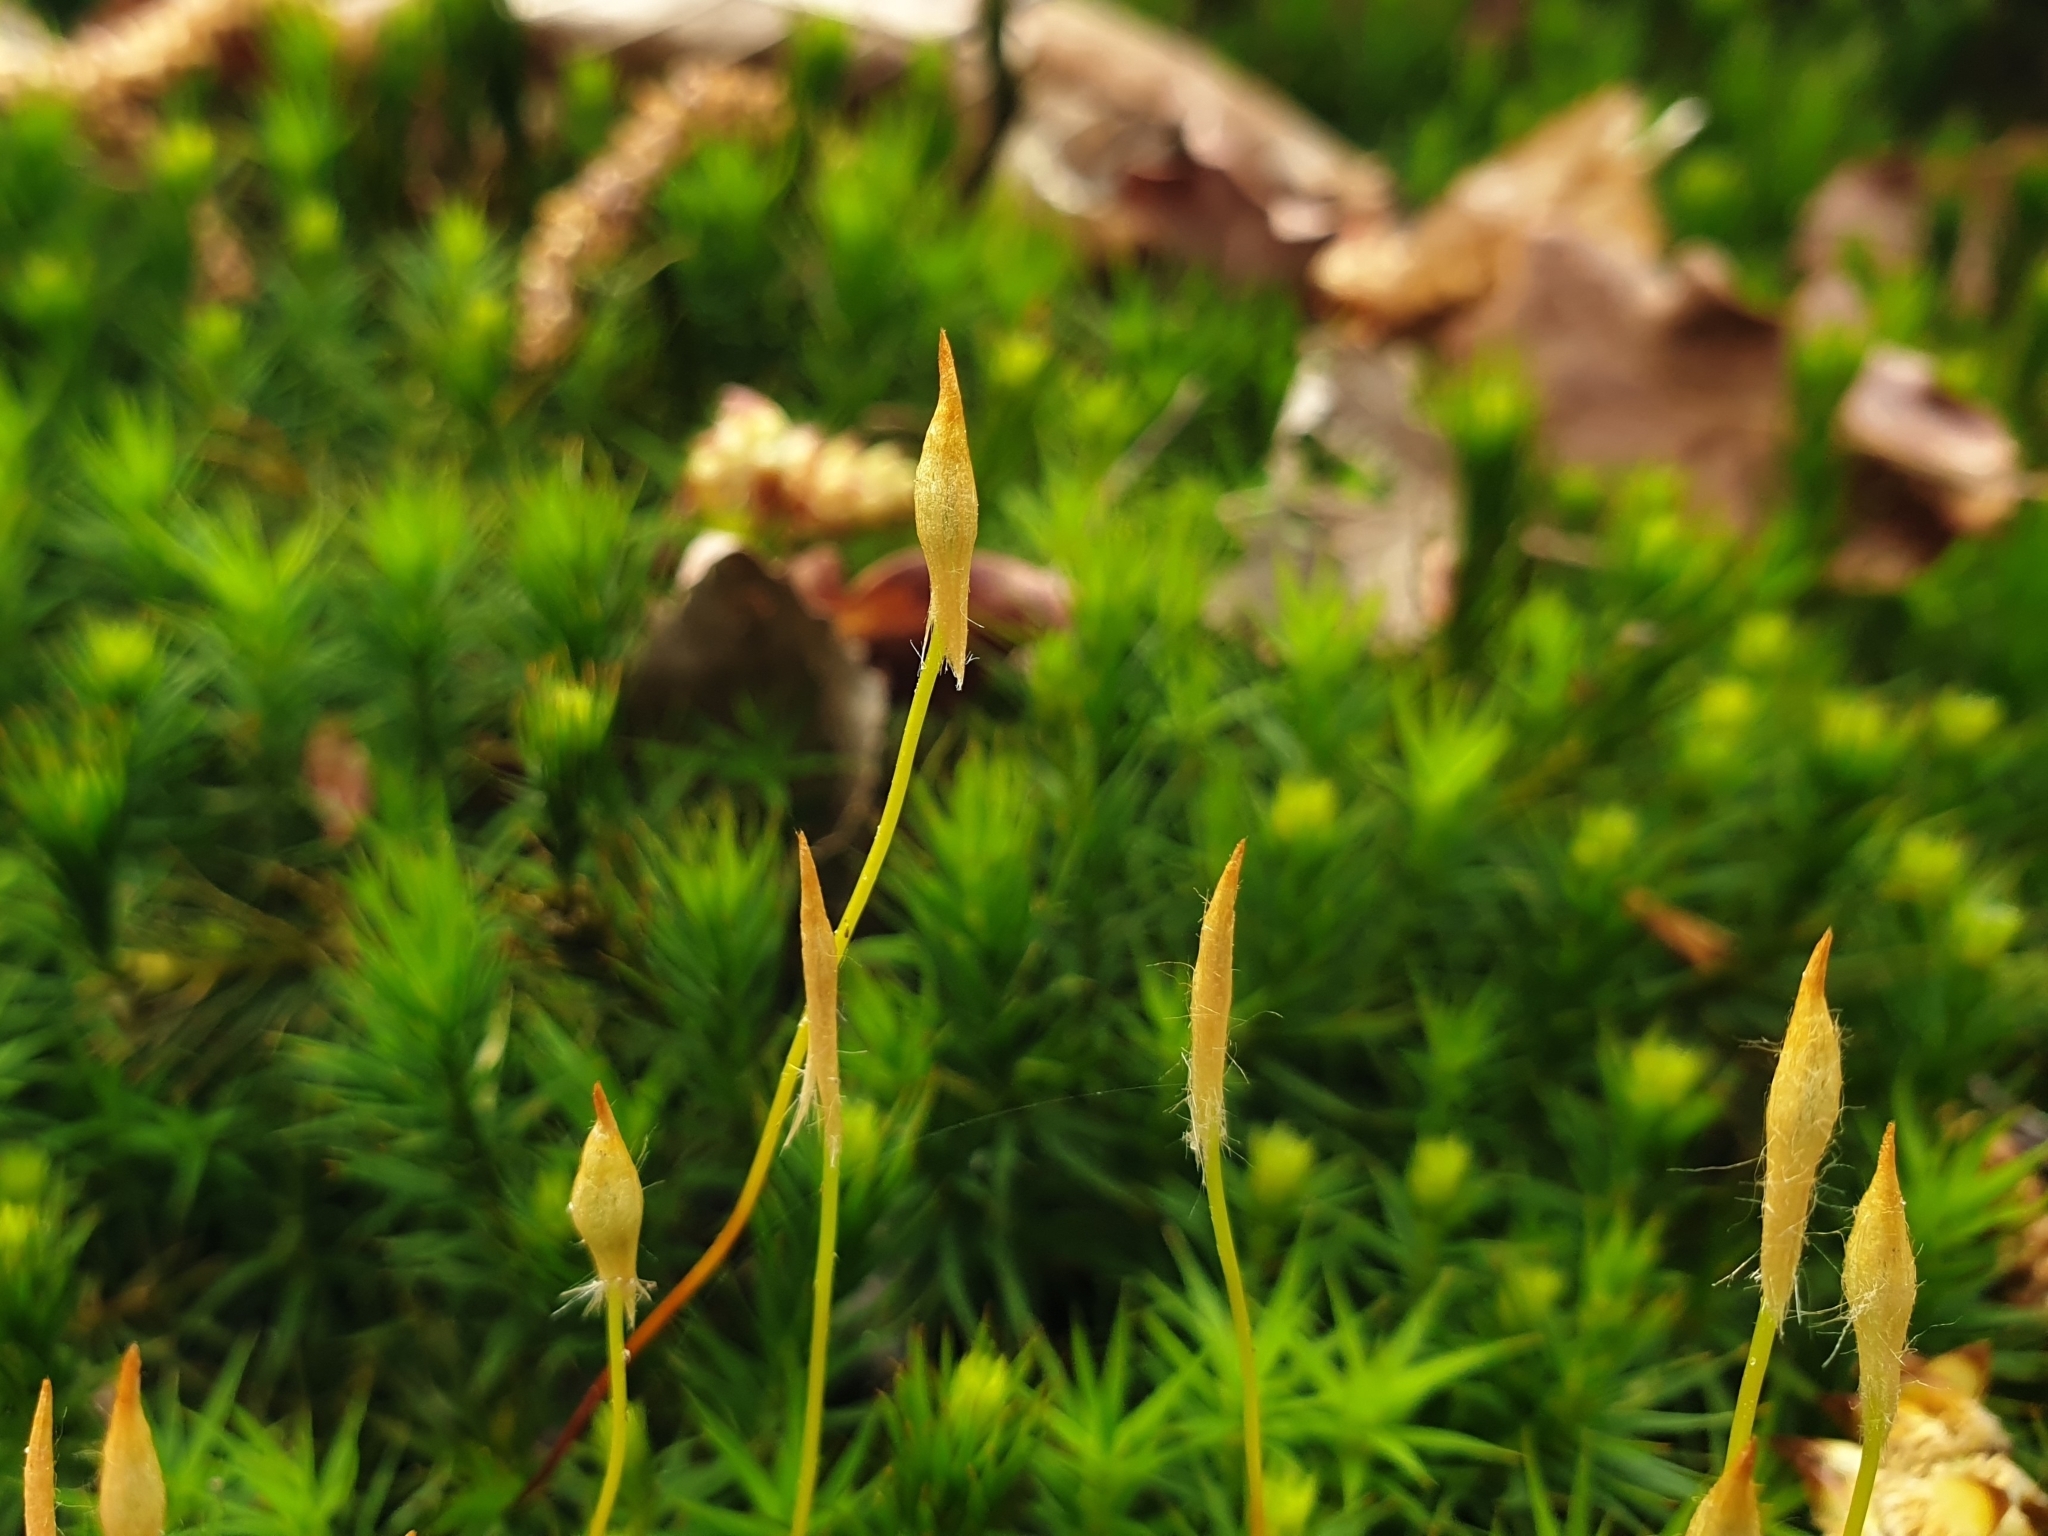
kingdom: Plantae
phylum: Bryophyta
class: Polytrichopsida
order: Polytrichales
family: Polytrichaceae
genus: Polytrichum
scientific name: Polytrichum formosum
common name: Bank haircap moss
